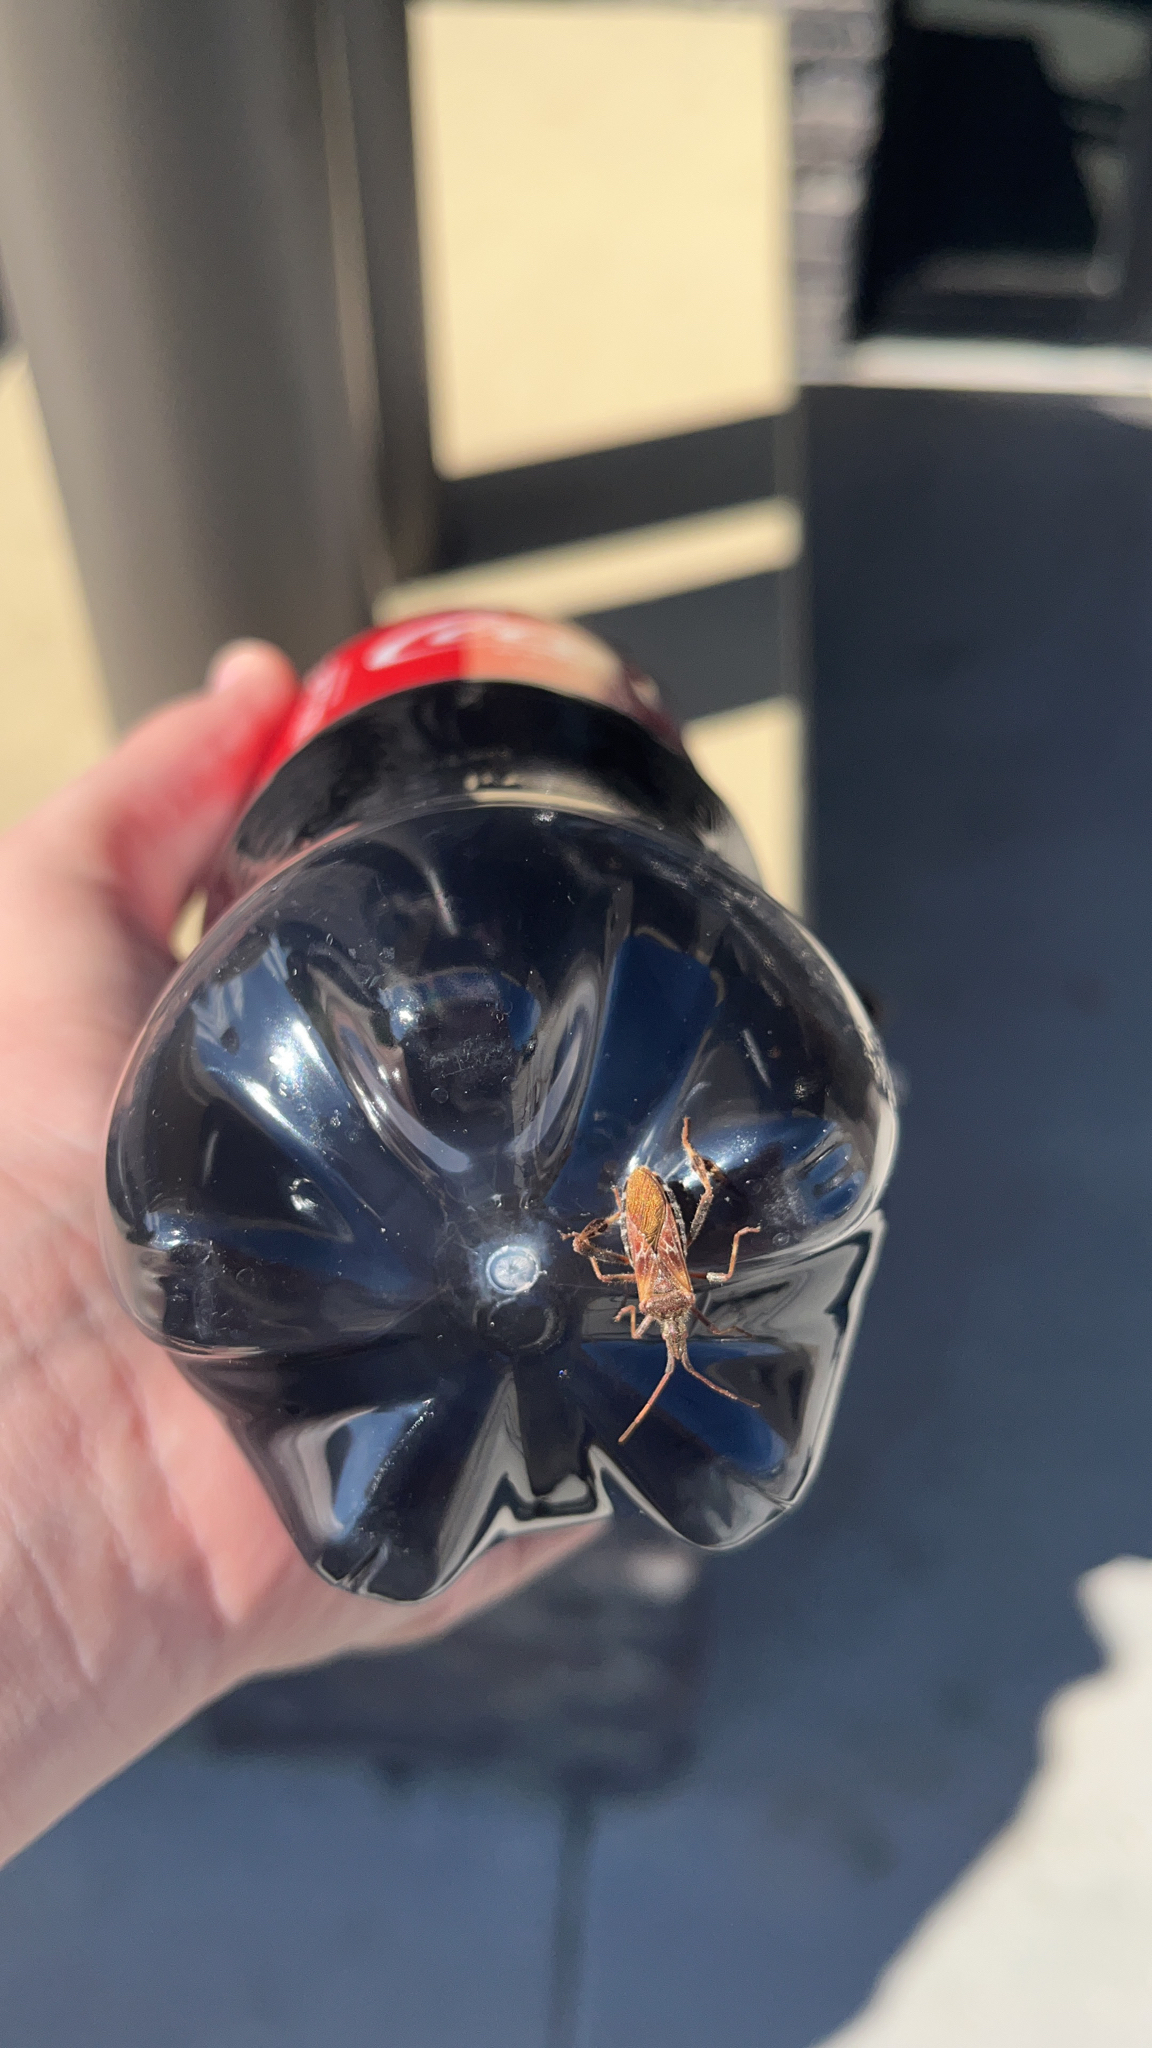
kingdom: Animalia
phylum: Arthropoda
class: Insecta
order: Hemiptera
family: Coreidae
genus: Leptoglossus
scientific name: Leptoglossus occidentalis
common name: Western conifer-seed bug
